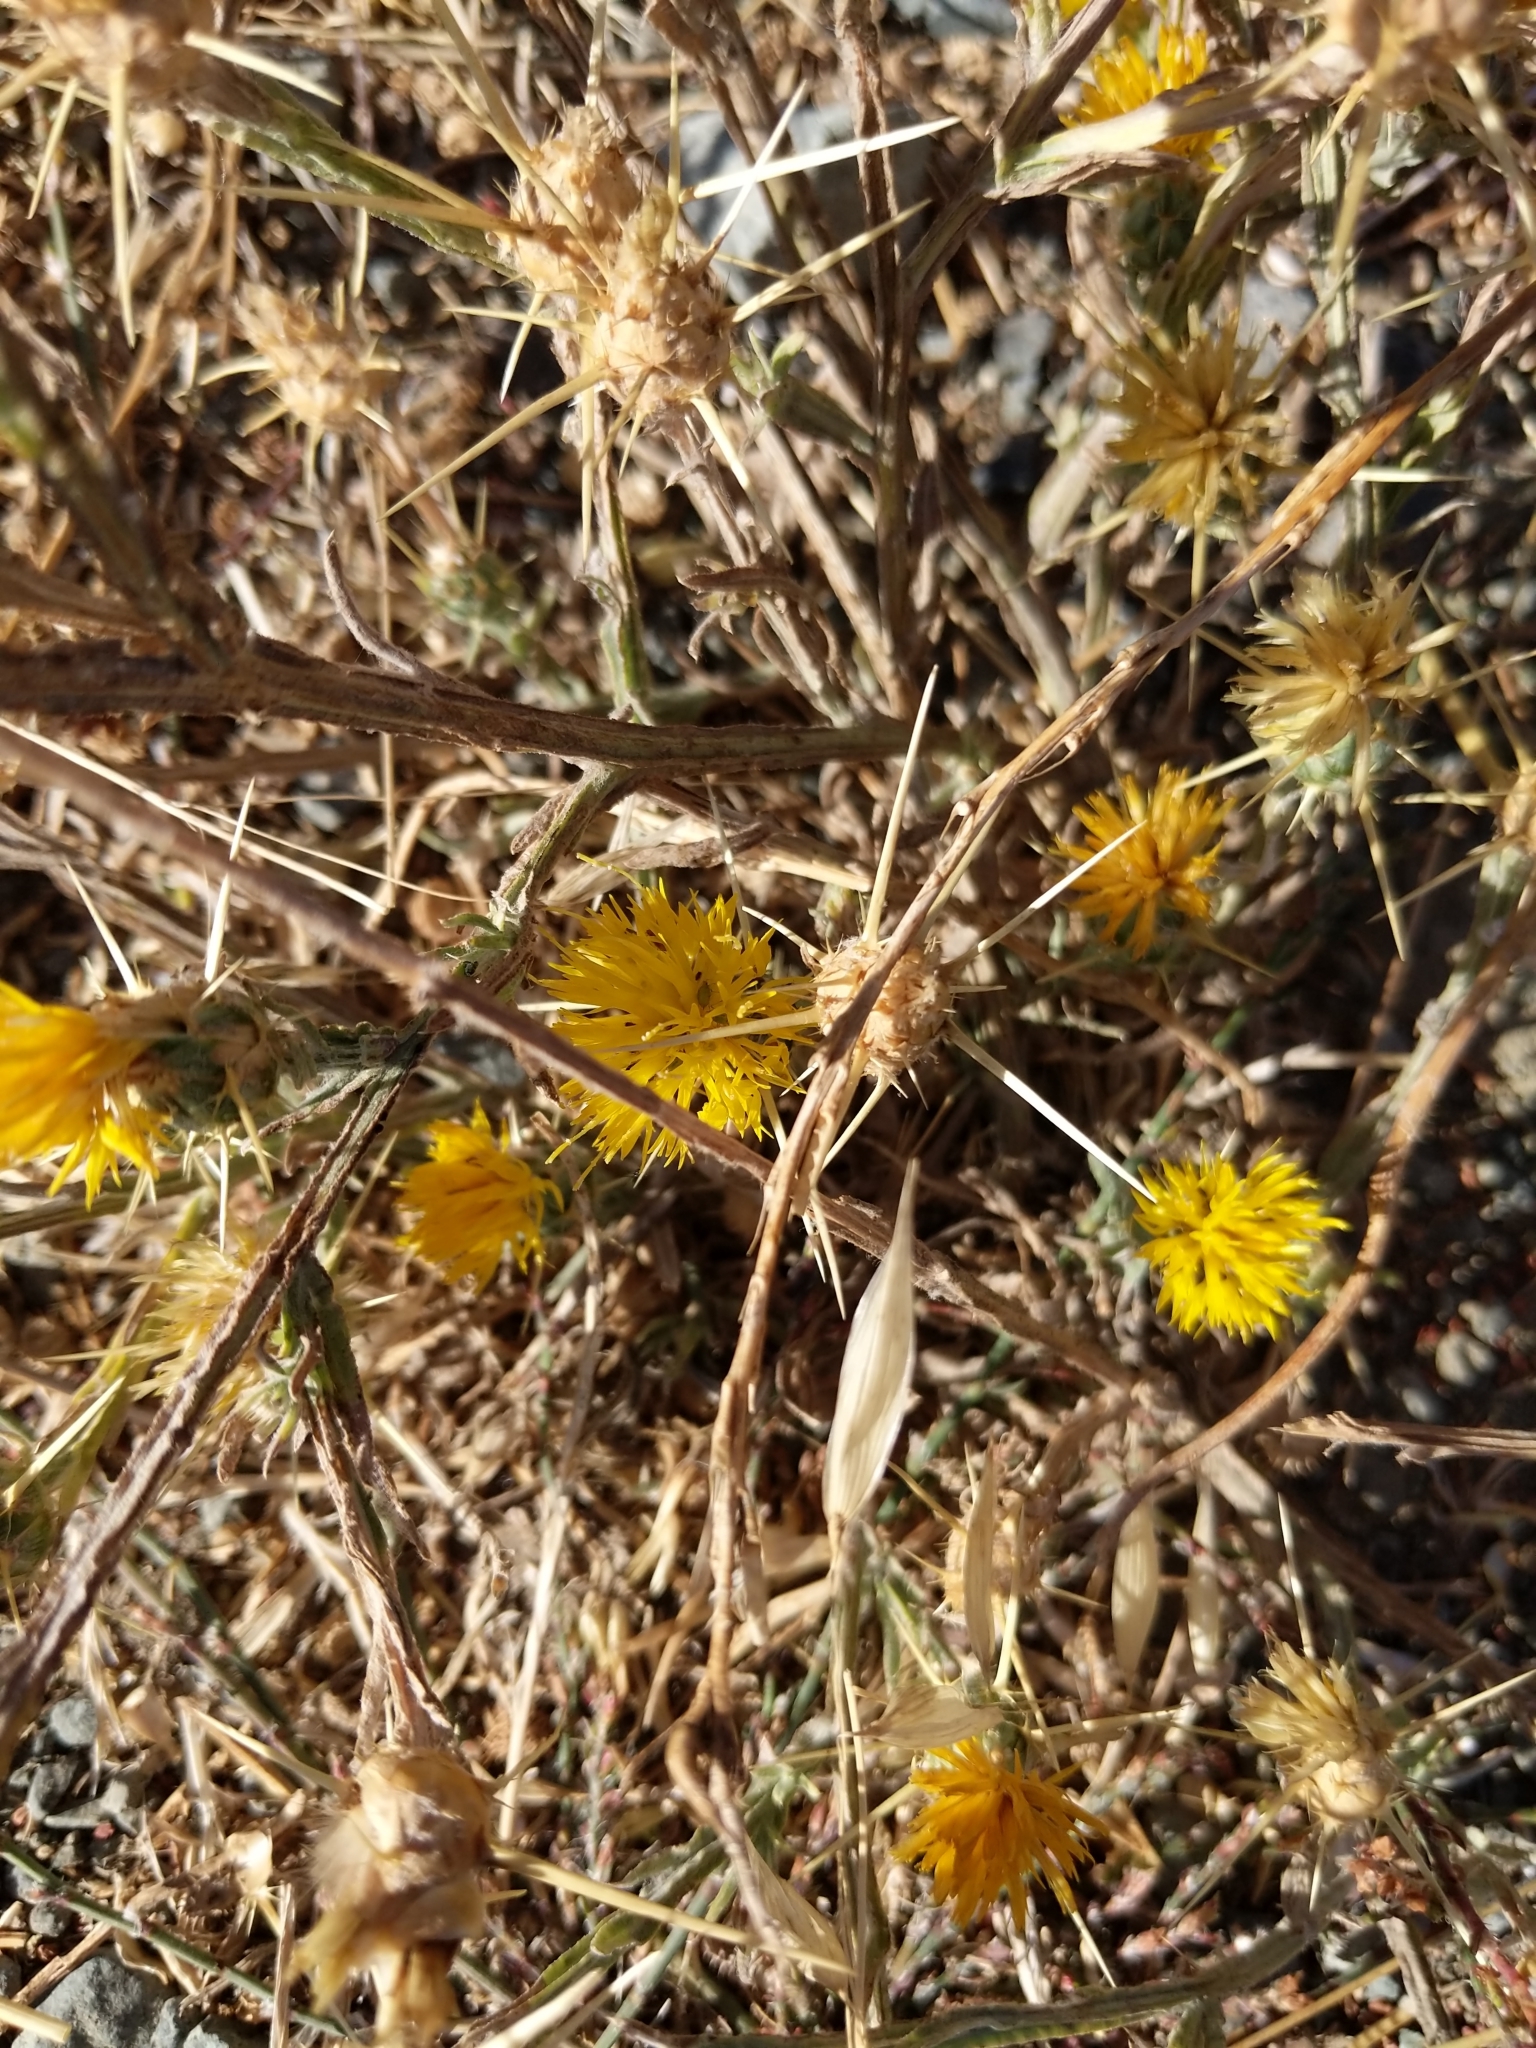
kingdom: Plantae
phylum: Tracheophyta
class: Magnoliopsida
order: Asterales
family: Asteraceae
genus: Centaurea
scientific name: Centaurea solstitialis
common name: Yellow star-thistle
